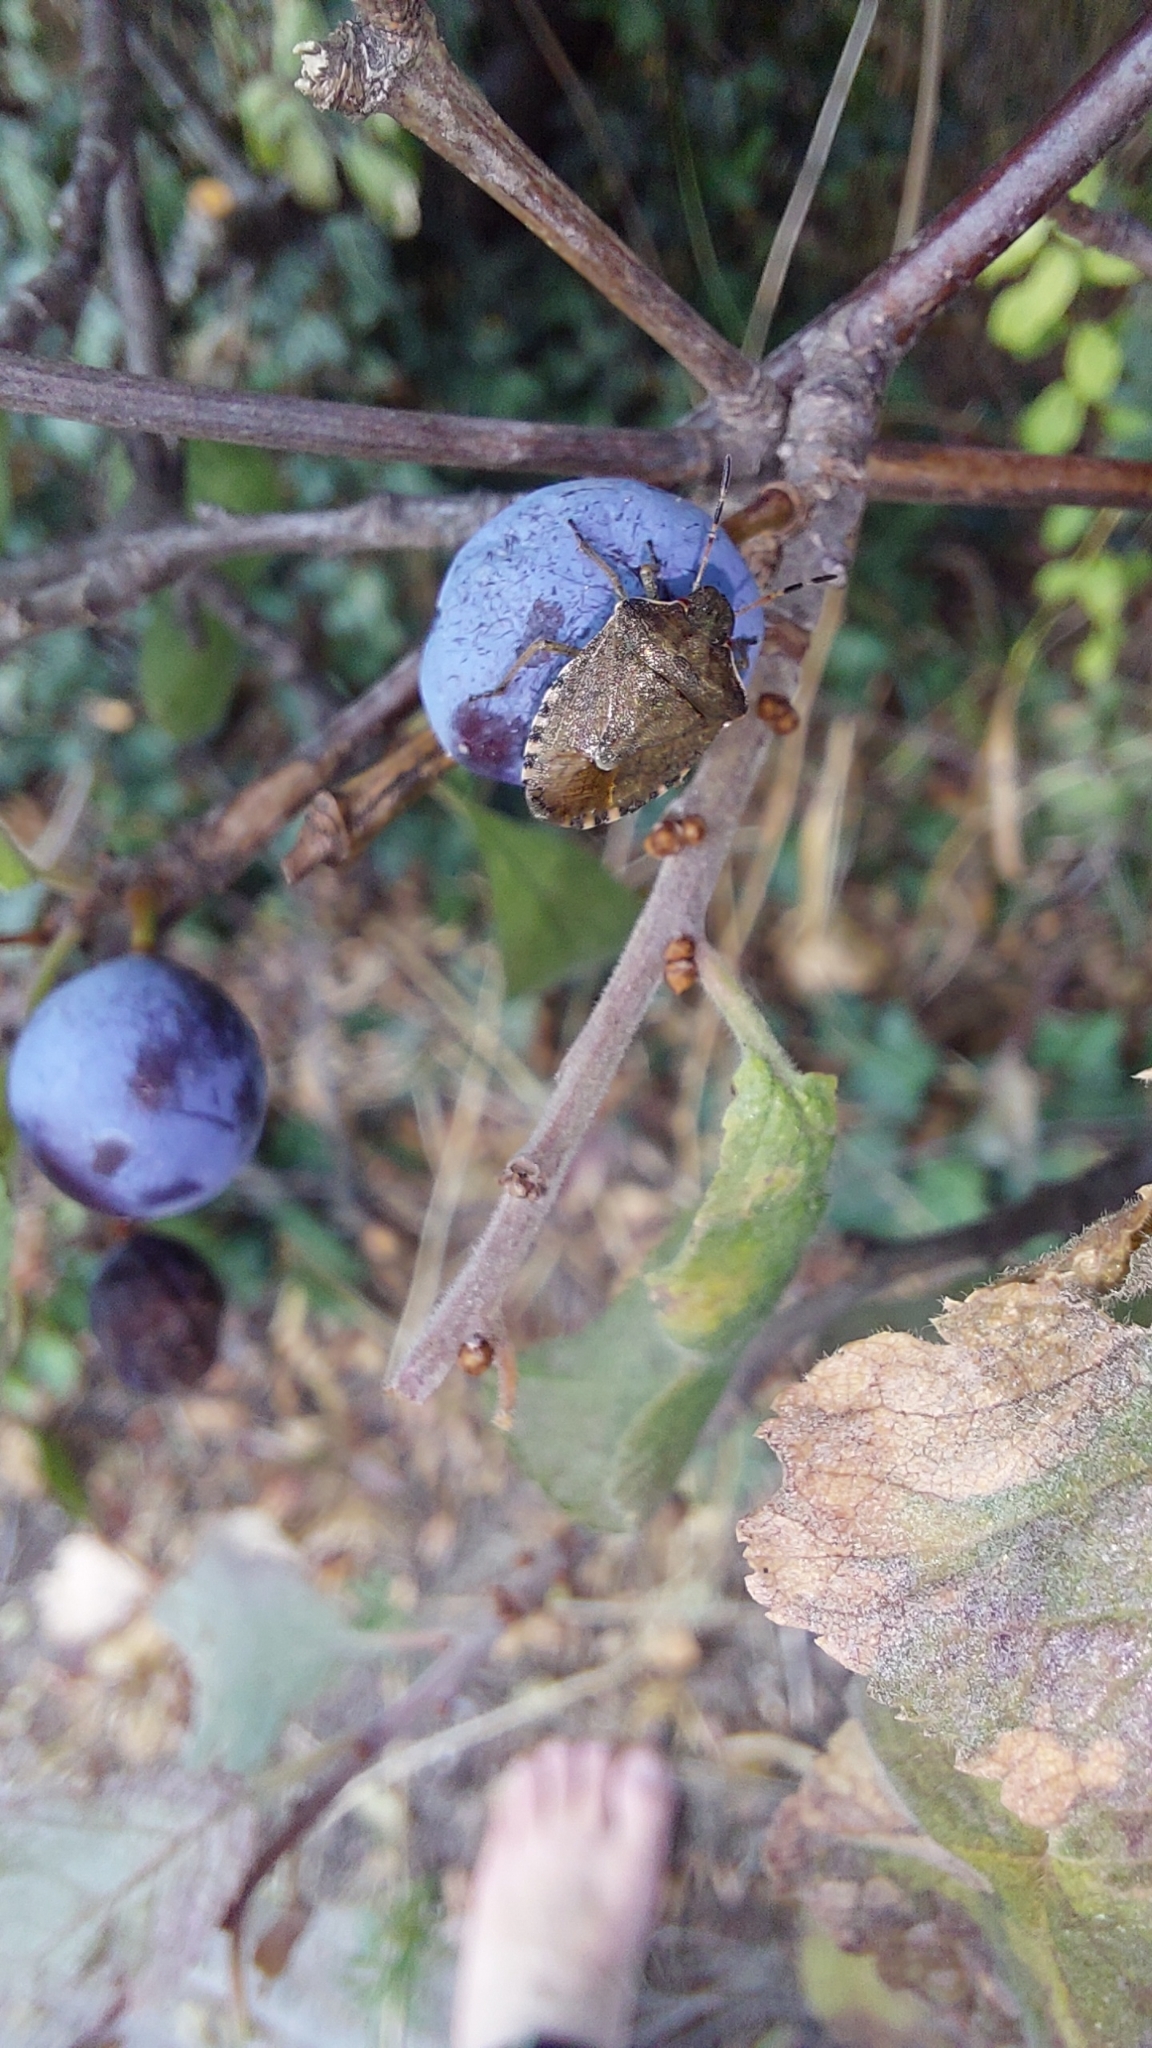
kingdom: Animalia
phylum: Arthropoda
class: Insecta
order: Hemiptera
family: Pentatomidae
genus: Holcostethus
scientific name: Holcostethus strictus
